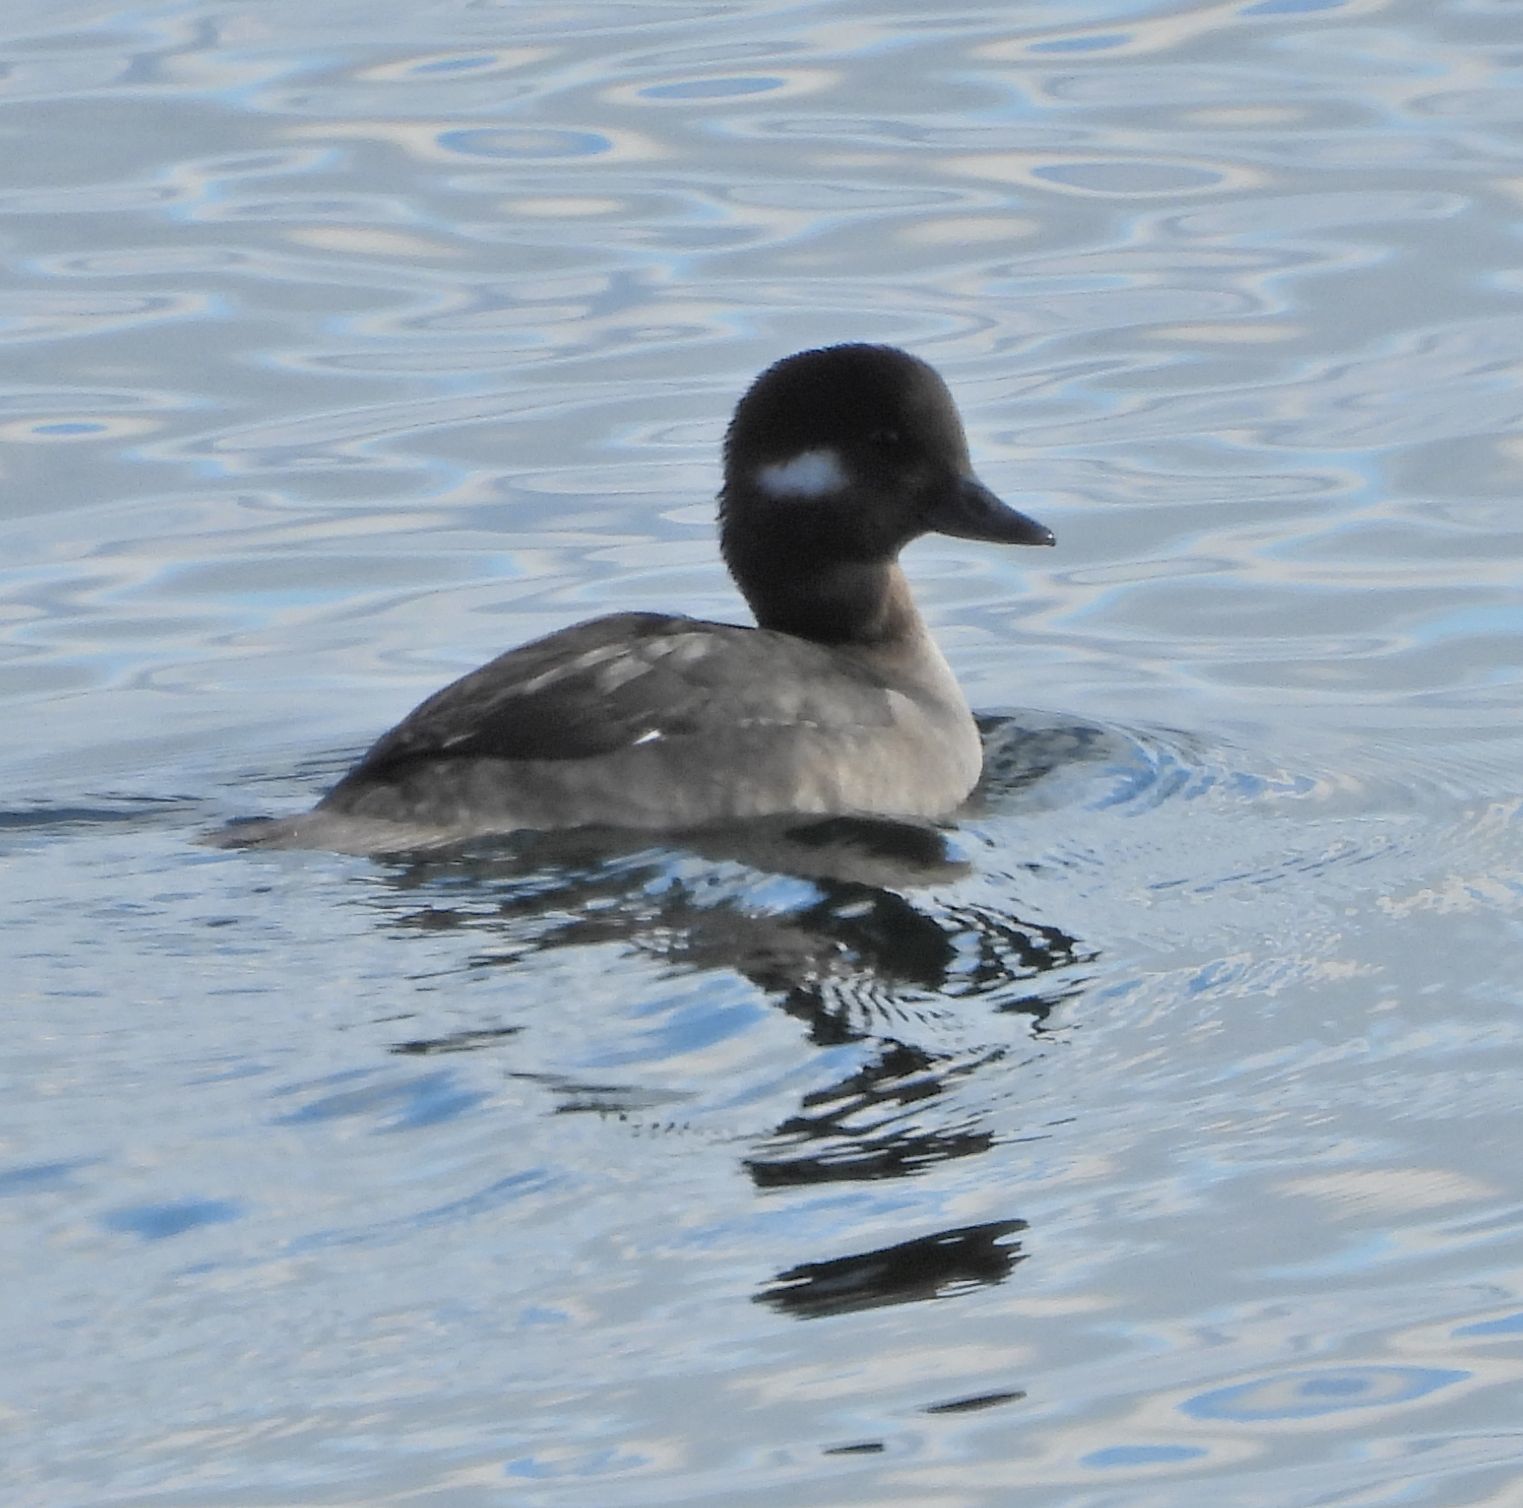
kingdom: Animalia
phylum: Chordata
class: Aves
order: Anseriformes
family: Anatidae
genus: Bucephala
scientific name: Bucephala albeola
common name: Bufflehead
